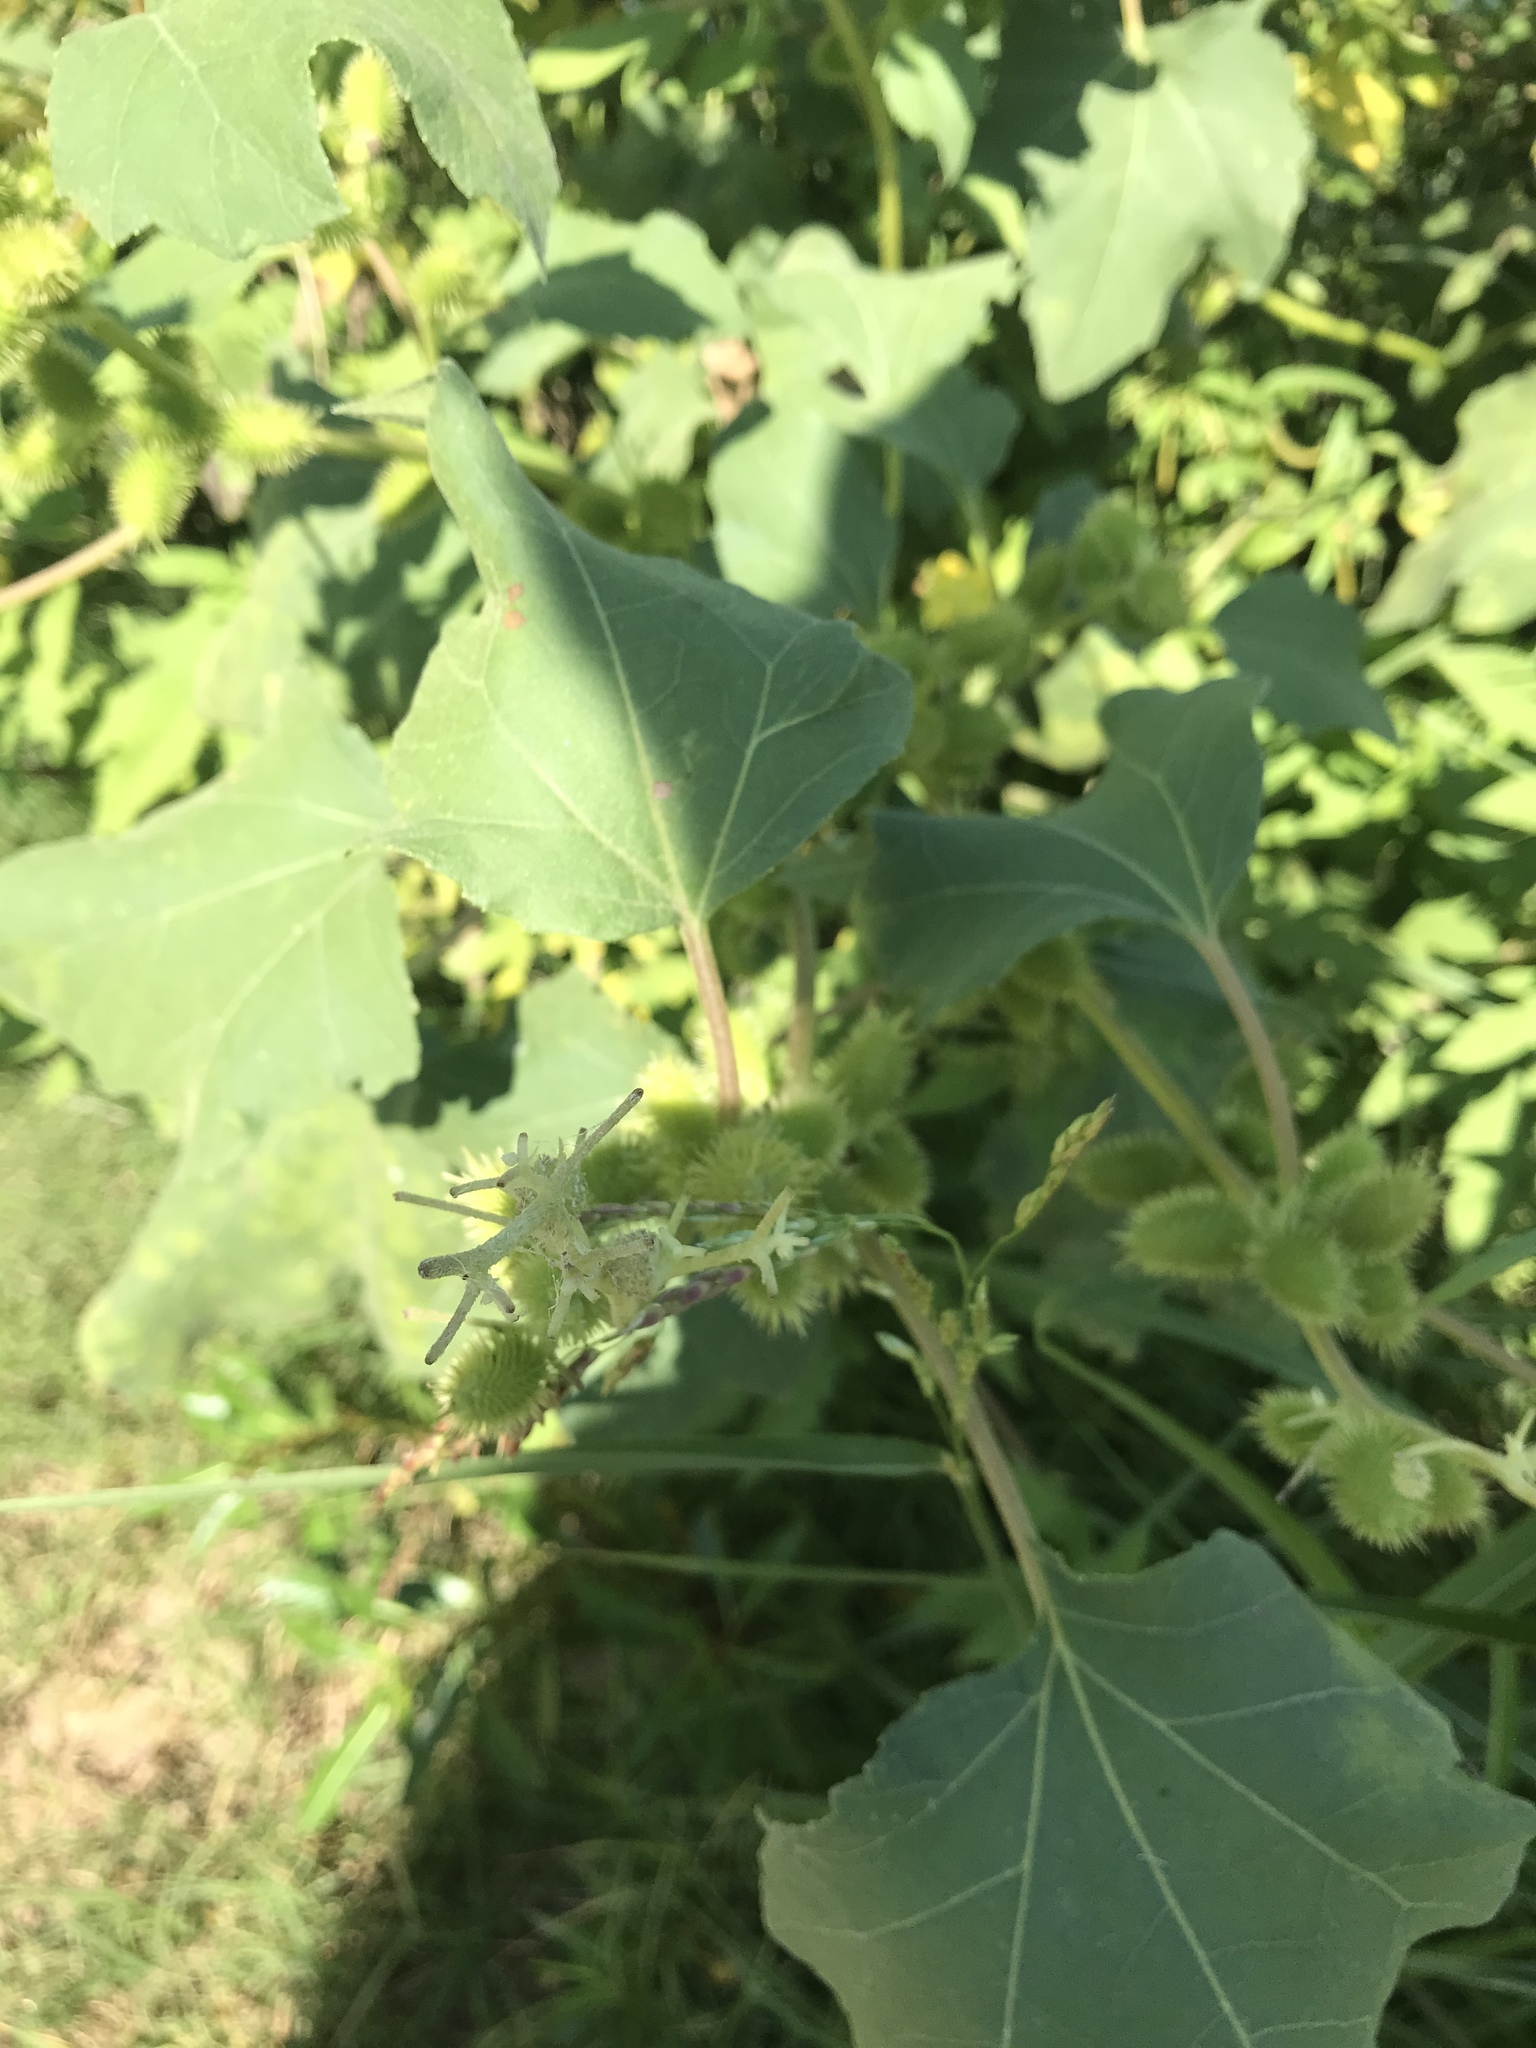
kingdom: Plantae
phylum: Tracheophyta
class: Magnoliopsida
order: Asterales
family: Asteraceae
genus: Xanthium
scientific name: Xanthium strumarium
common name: Rough cocklebur
